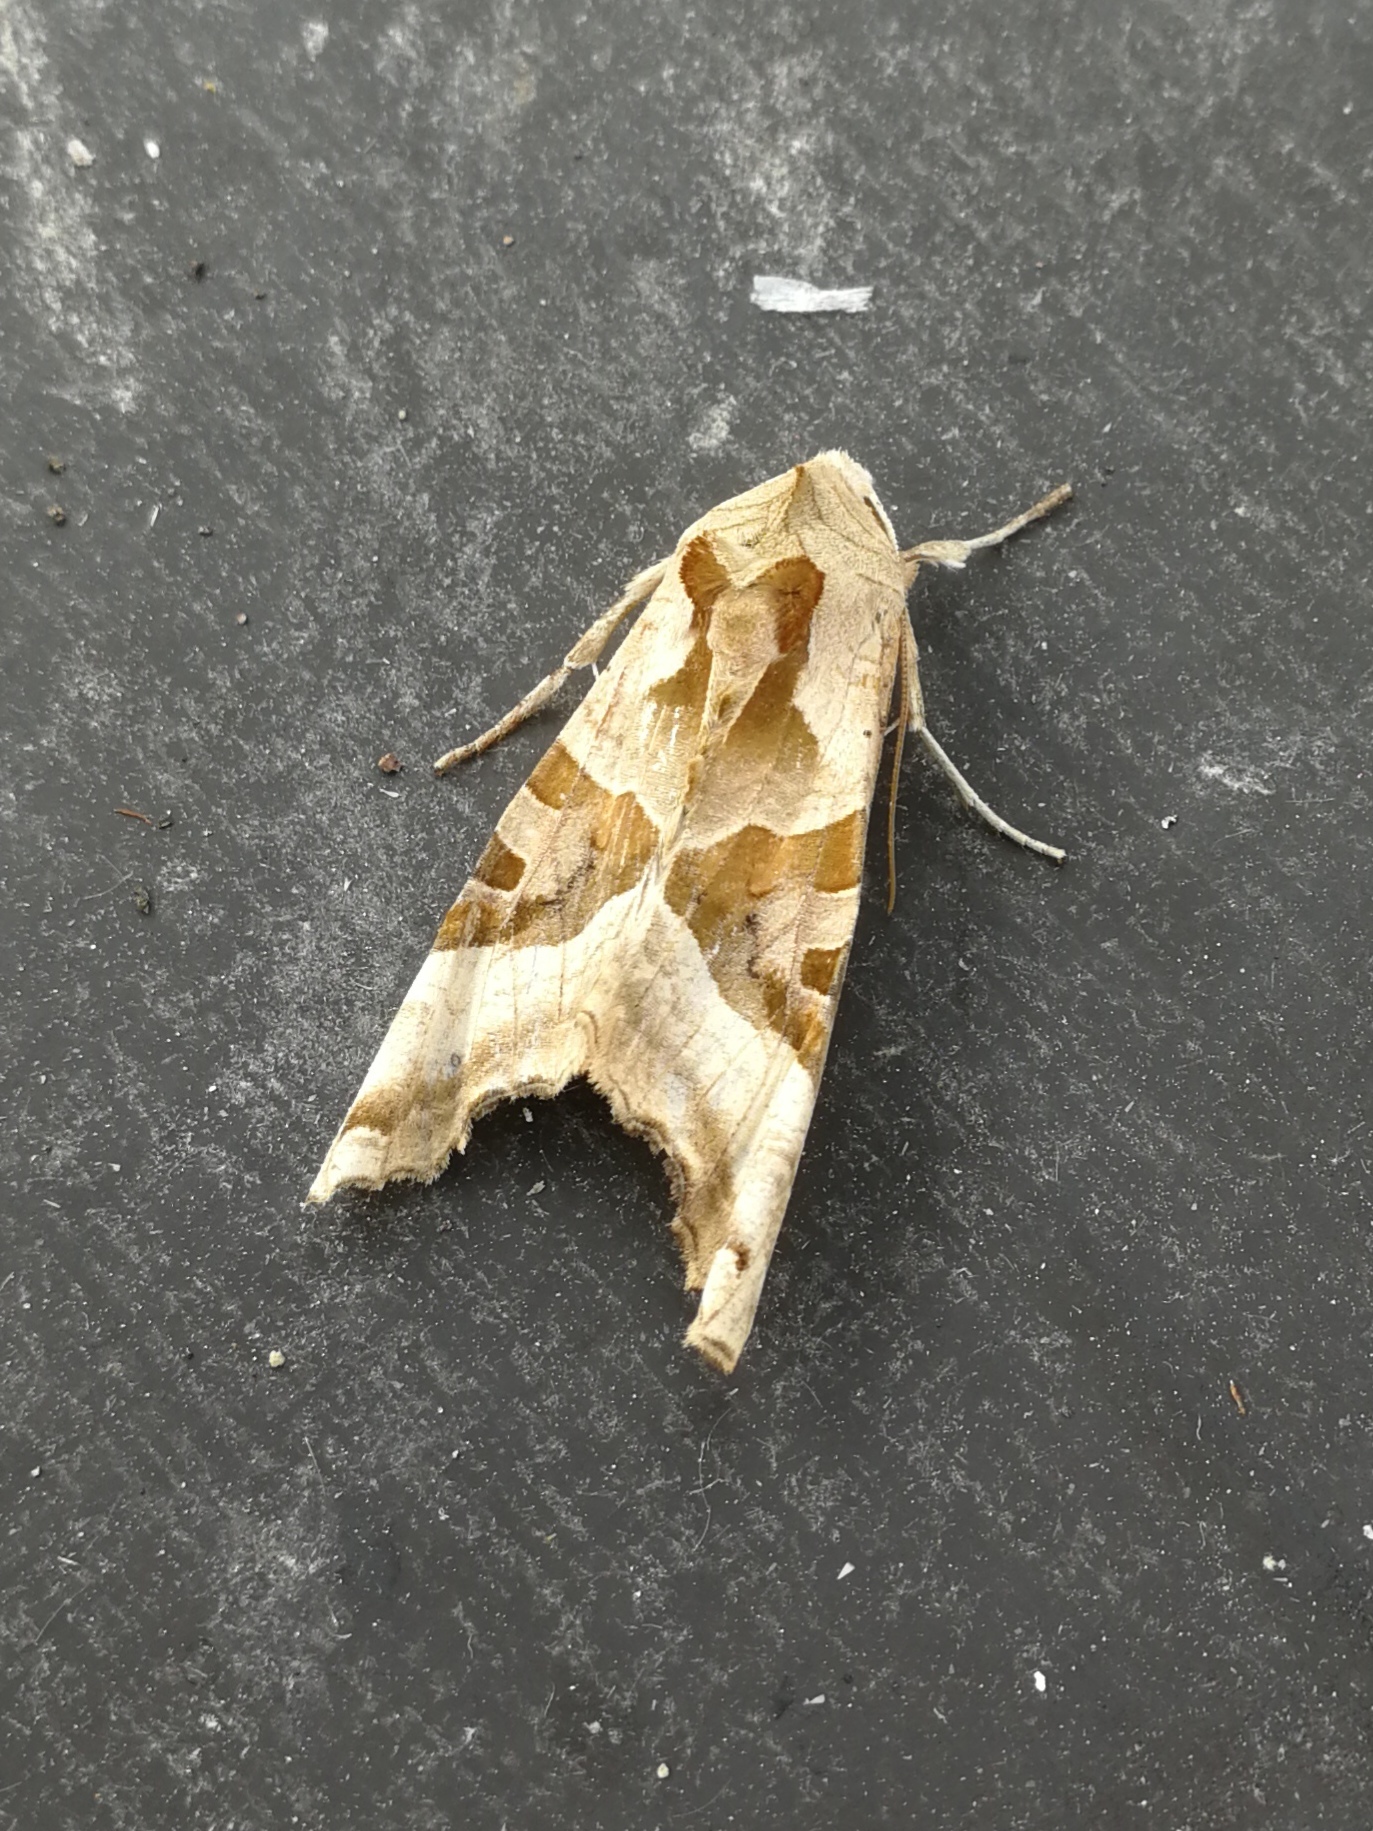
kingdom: Animalia
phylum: Arthropoda
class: Insecta
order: Lepidoptera
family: Noctuidae
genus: Phlogophora
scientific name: Phlogophora meticulosa
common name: Angle shades
